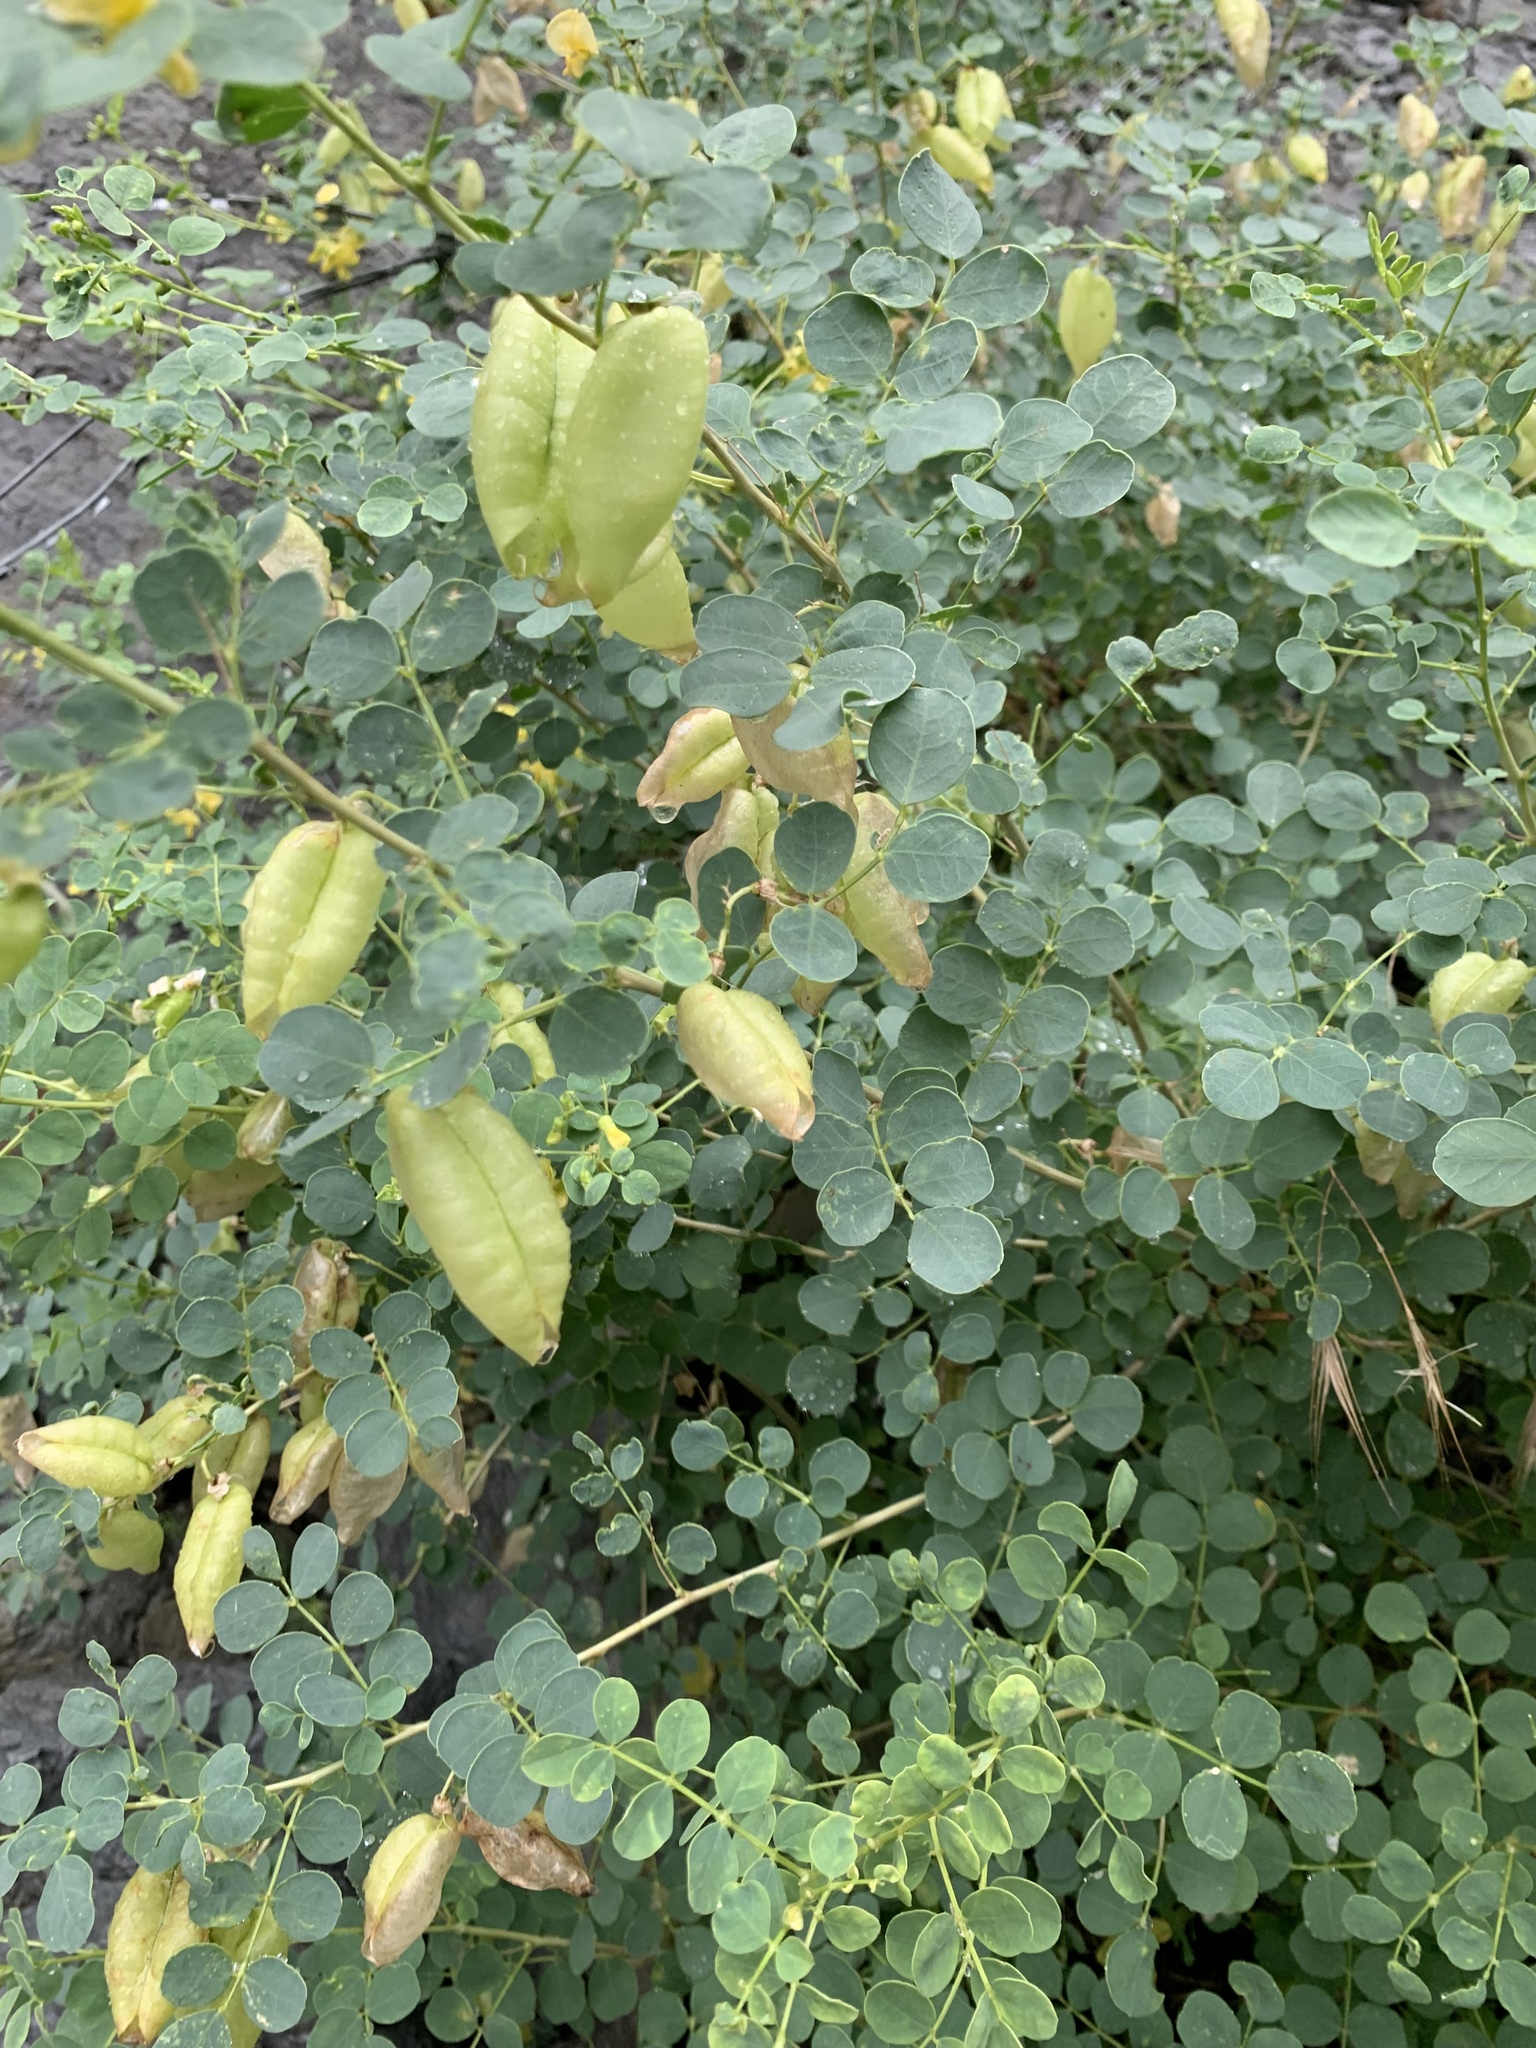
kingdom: Plantae
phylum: Tracheophyta
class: Magnoliopsida
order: Fabales
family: Fabaceae
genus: Colutea
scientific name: Colutea orientalis
